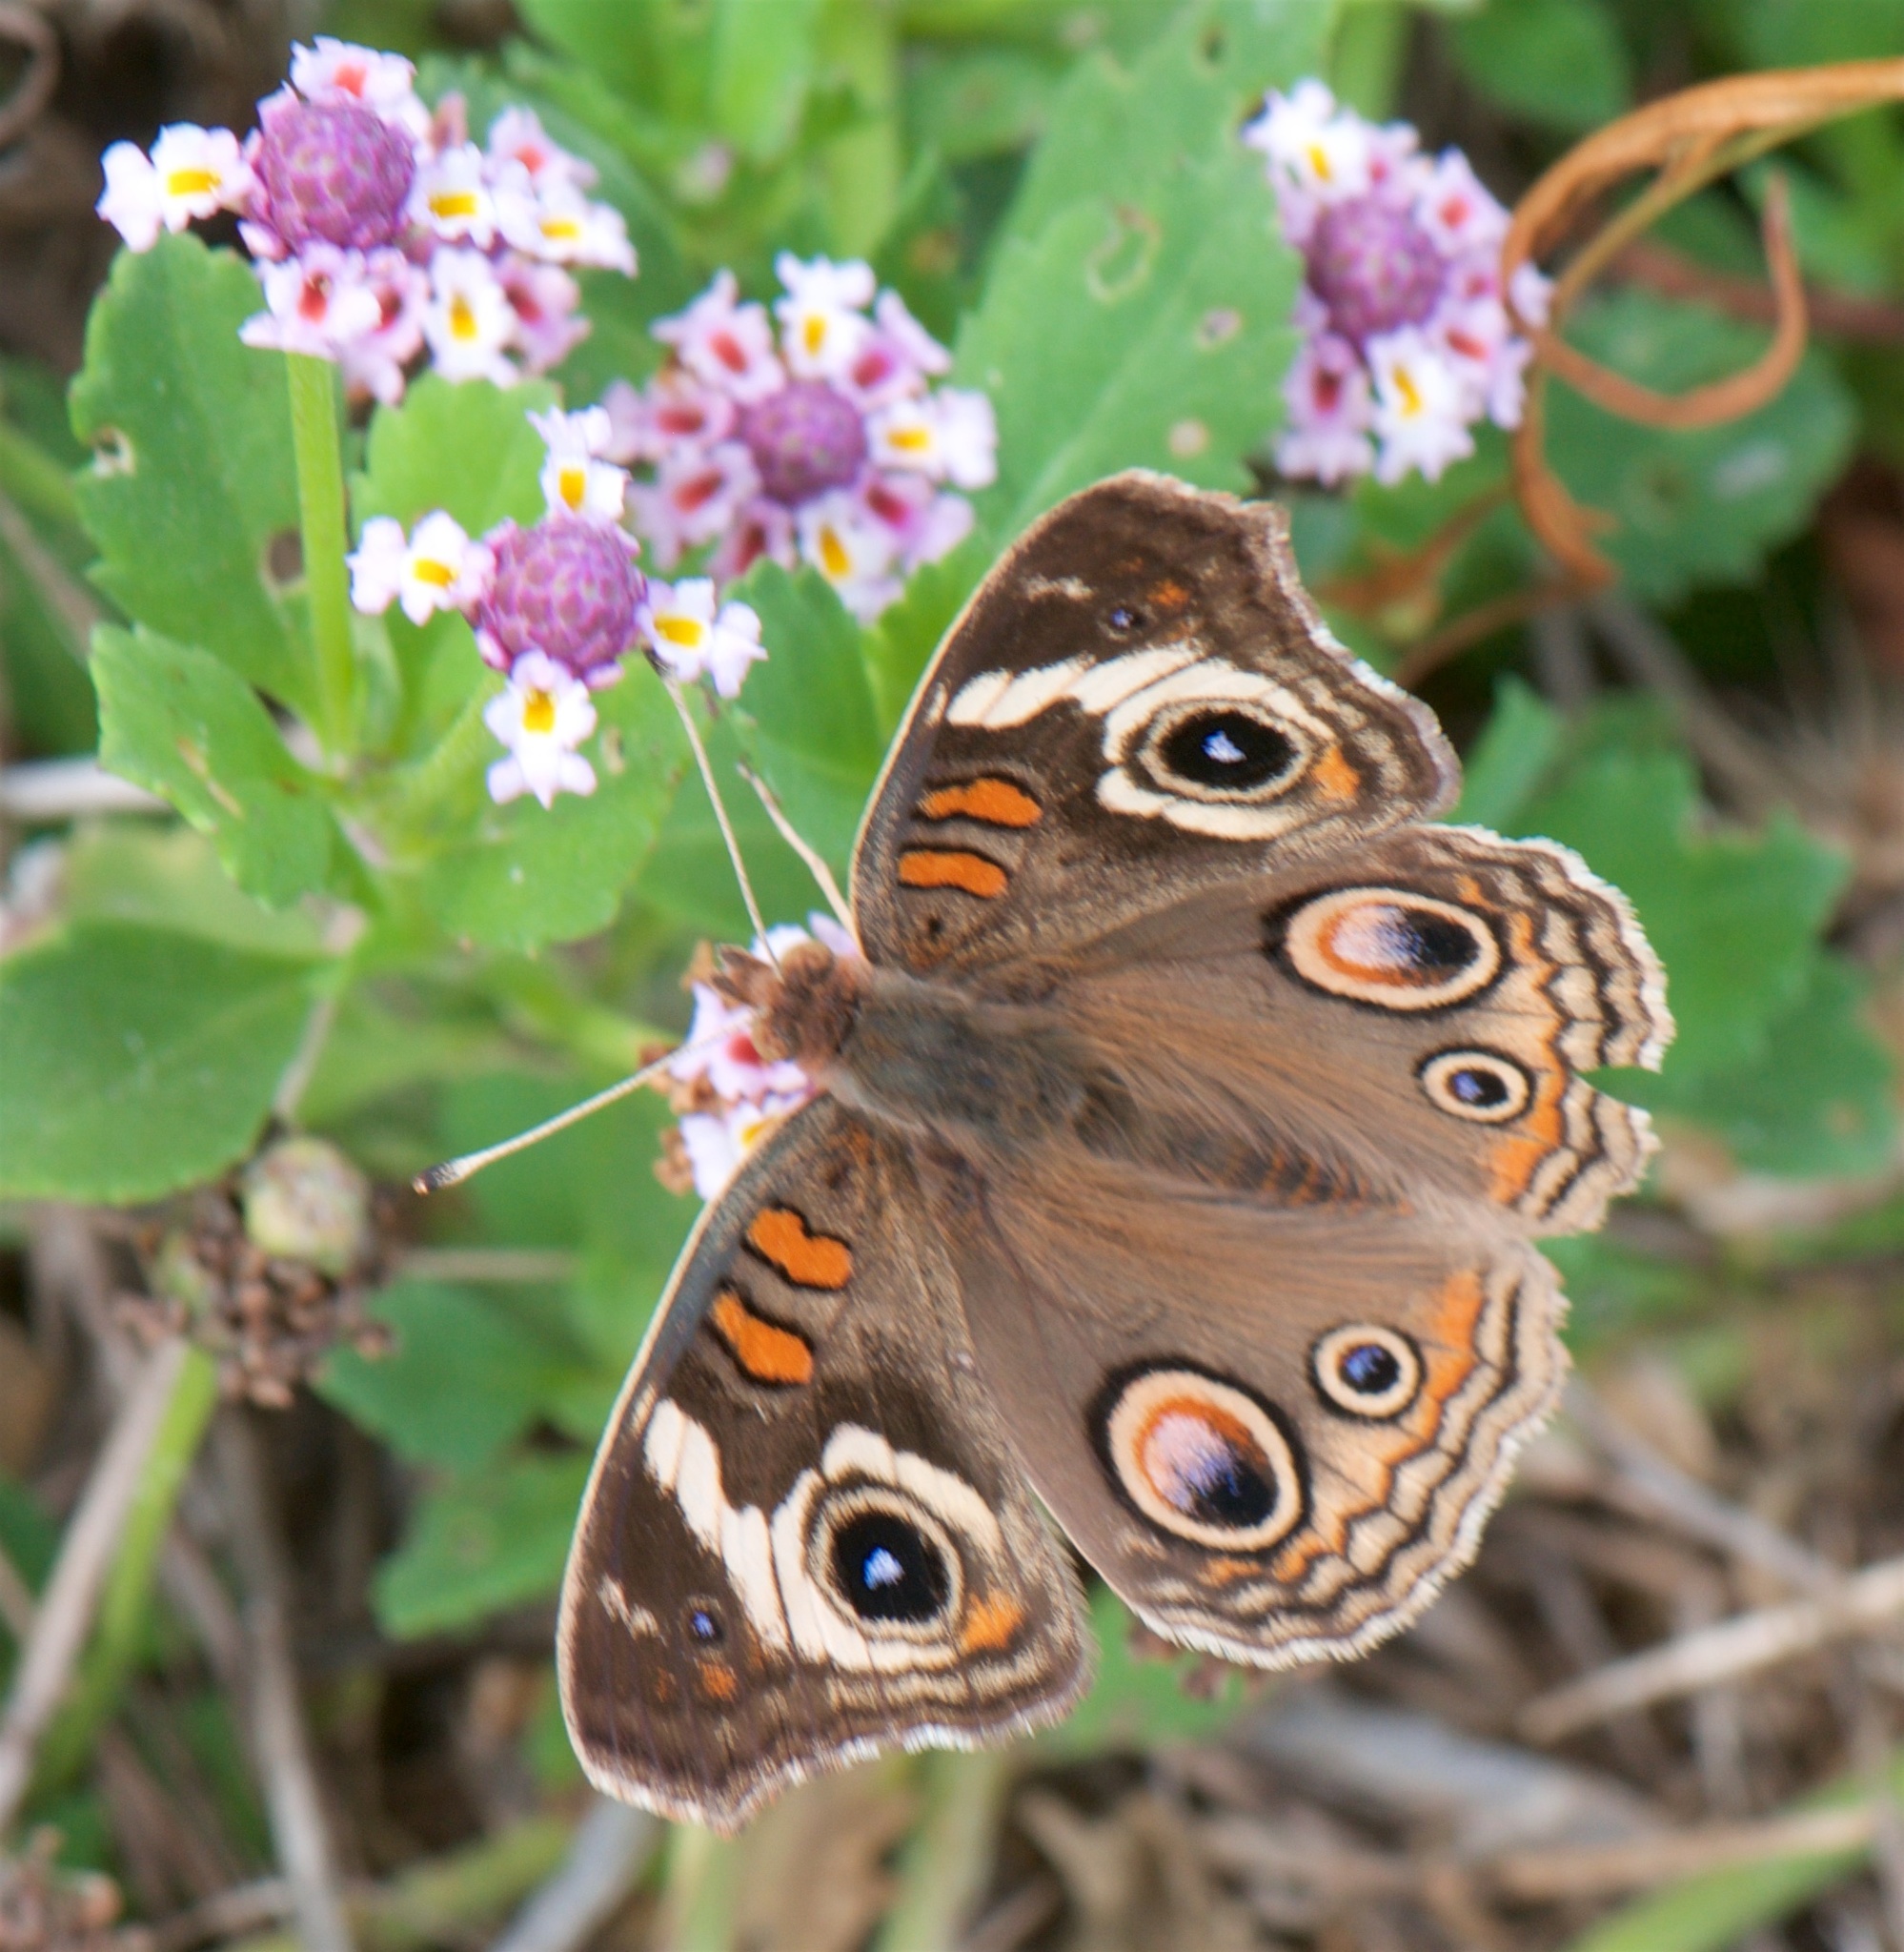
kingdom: Animalia
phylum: Arthropoda
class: Insecta
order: Lepidoptera
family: Nymphalidae
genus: Junonia
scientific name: Junonia grisea
